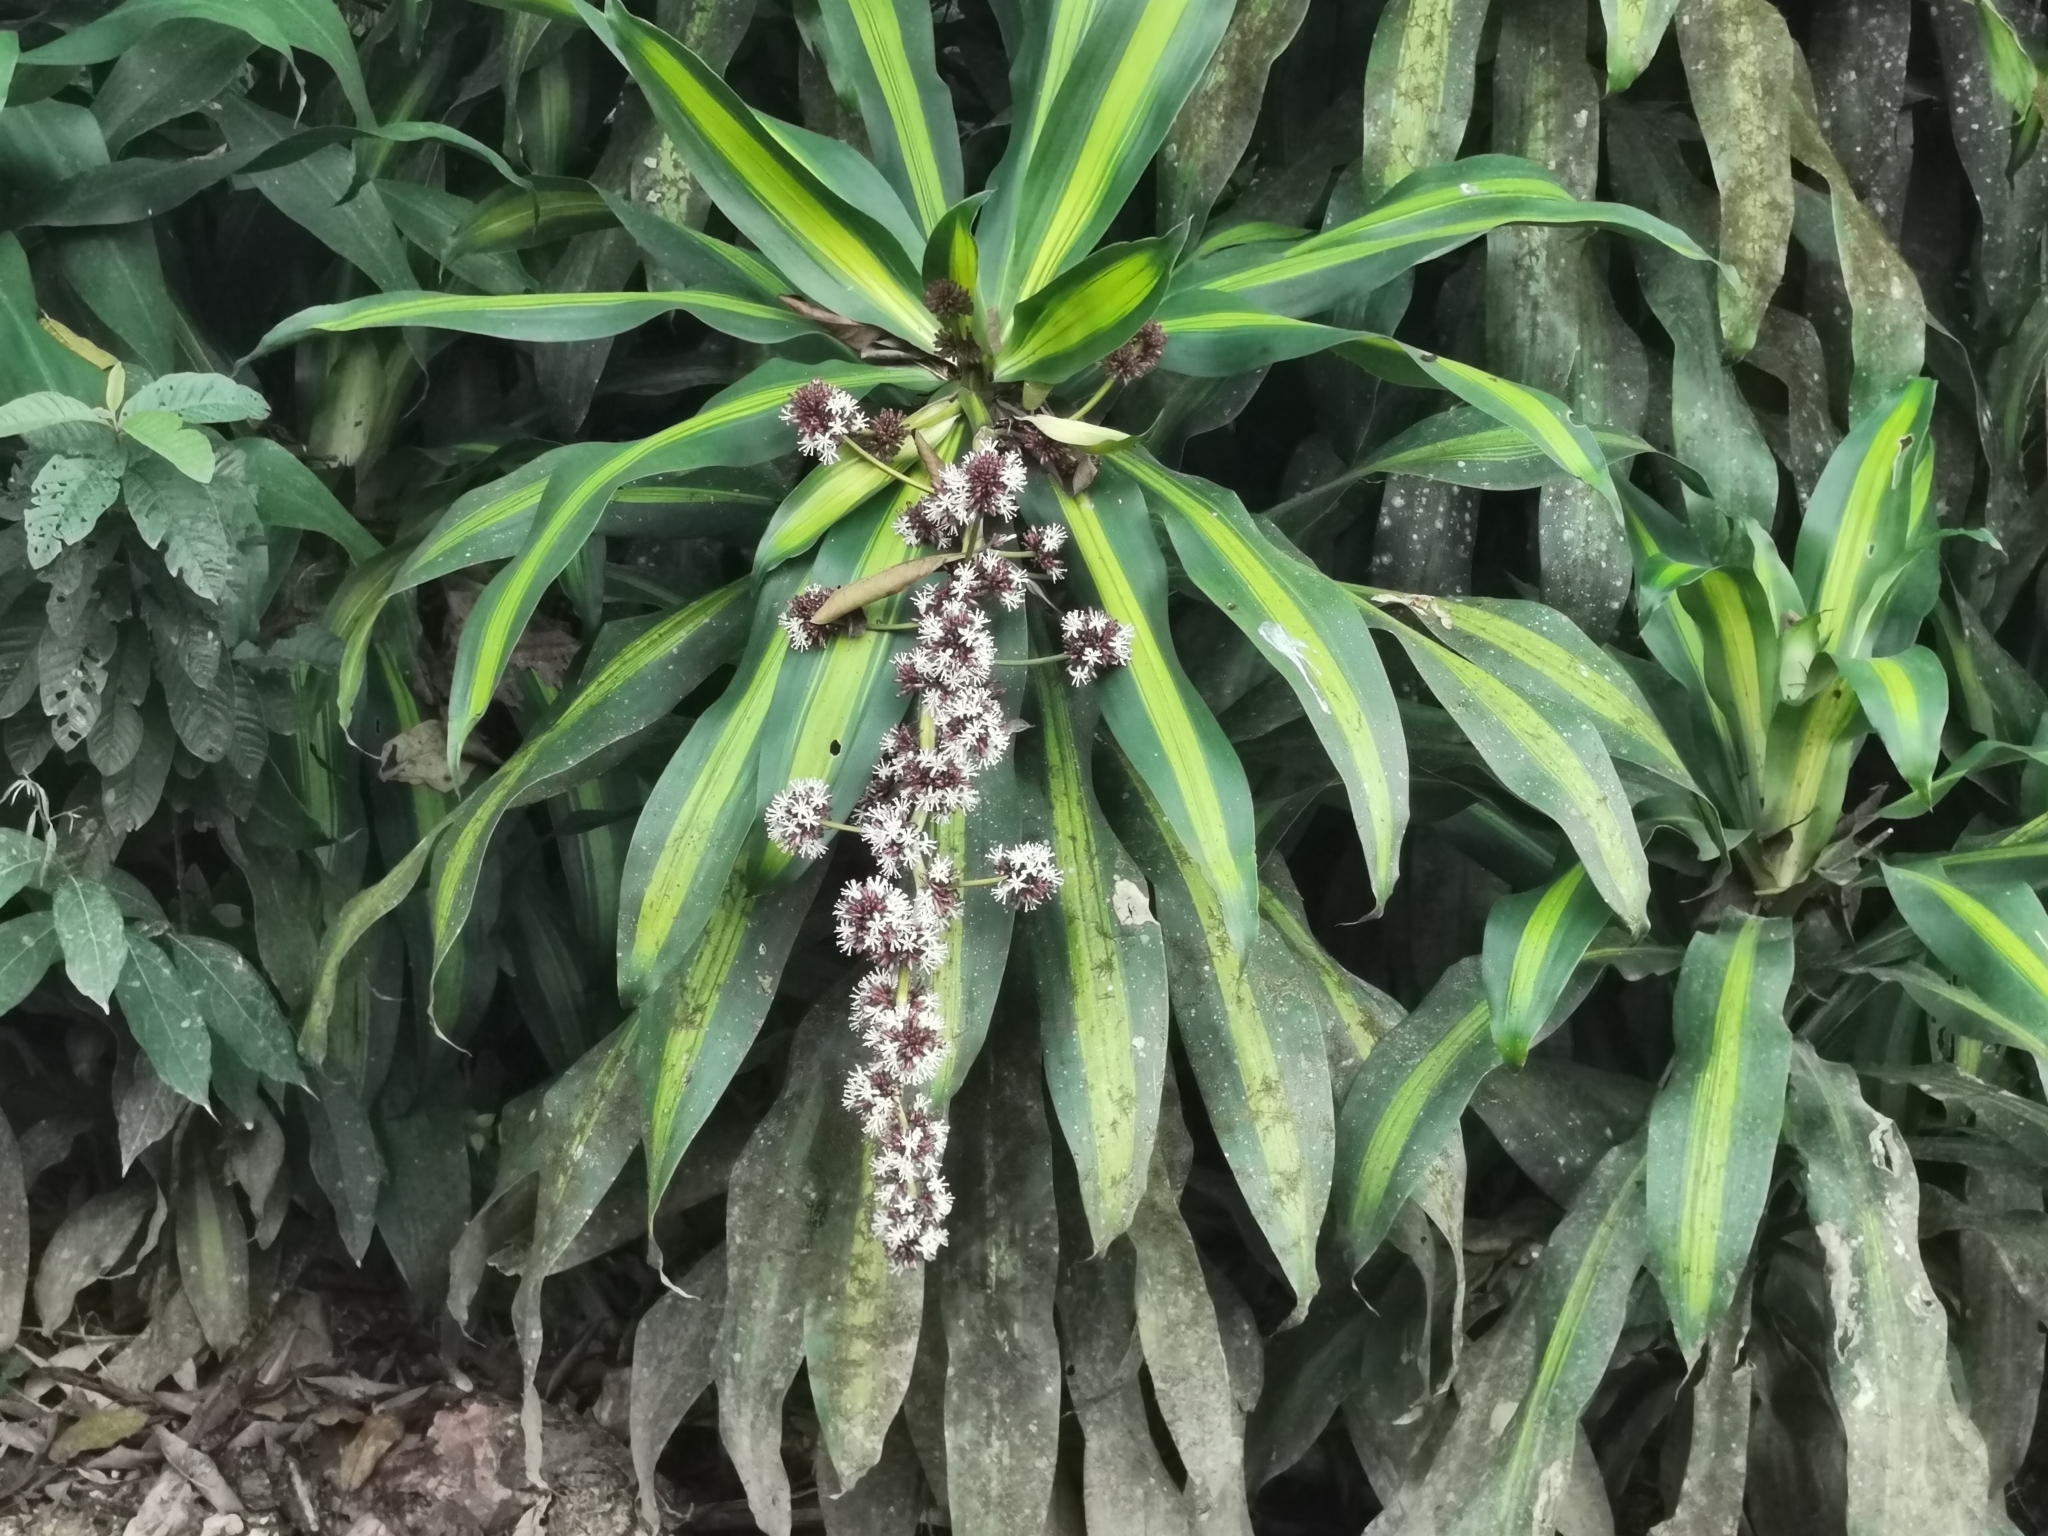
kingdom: Plantae
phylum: Tracheophyta
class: Liliopsida
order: Asparagales
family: Asparagaceae
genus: Dracaena
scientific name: Dracaena fragrans
